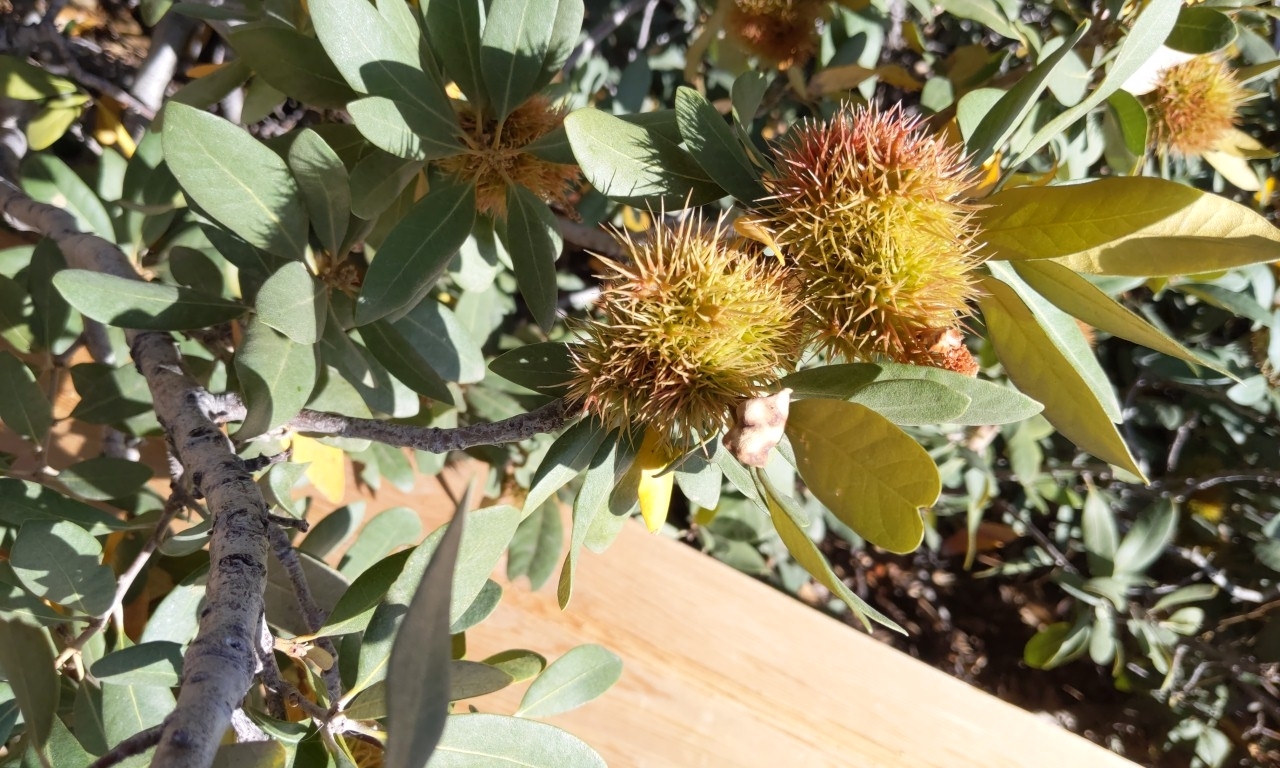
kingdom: Plantae
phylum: Tracheophyta
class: Magnoliopsida
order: Fagales
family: Fagaceae
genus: Chrysolepis
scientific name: Chrysolepis sempervirens
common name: Bush chinquapin
